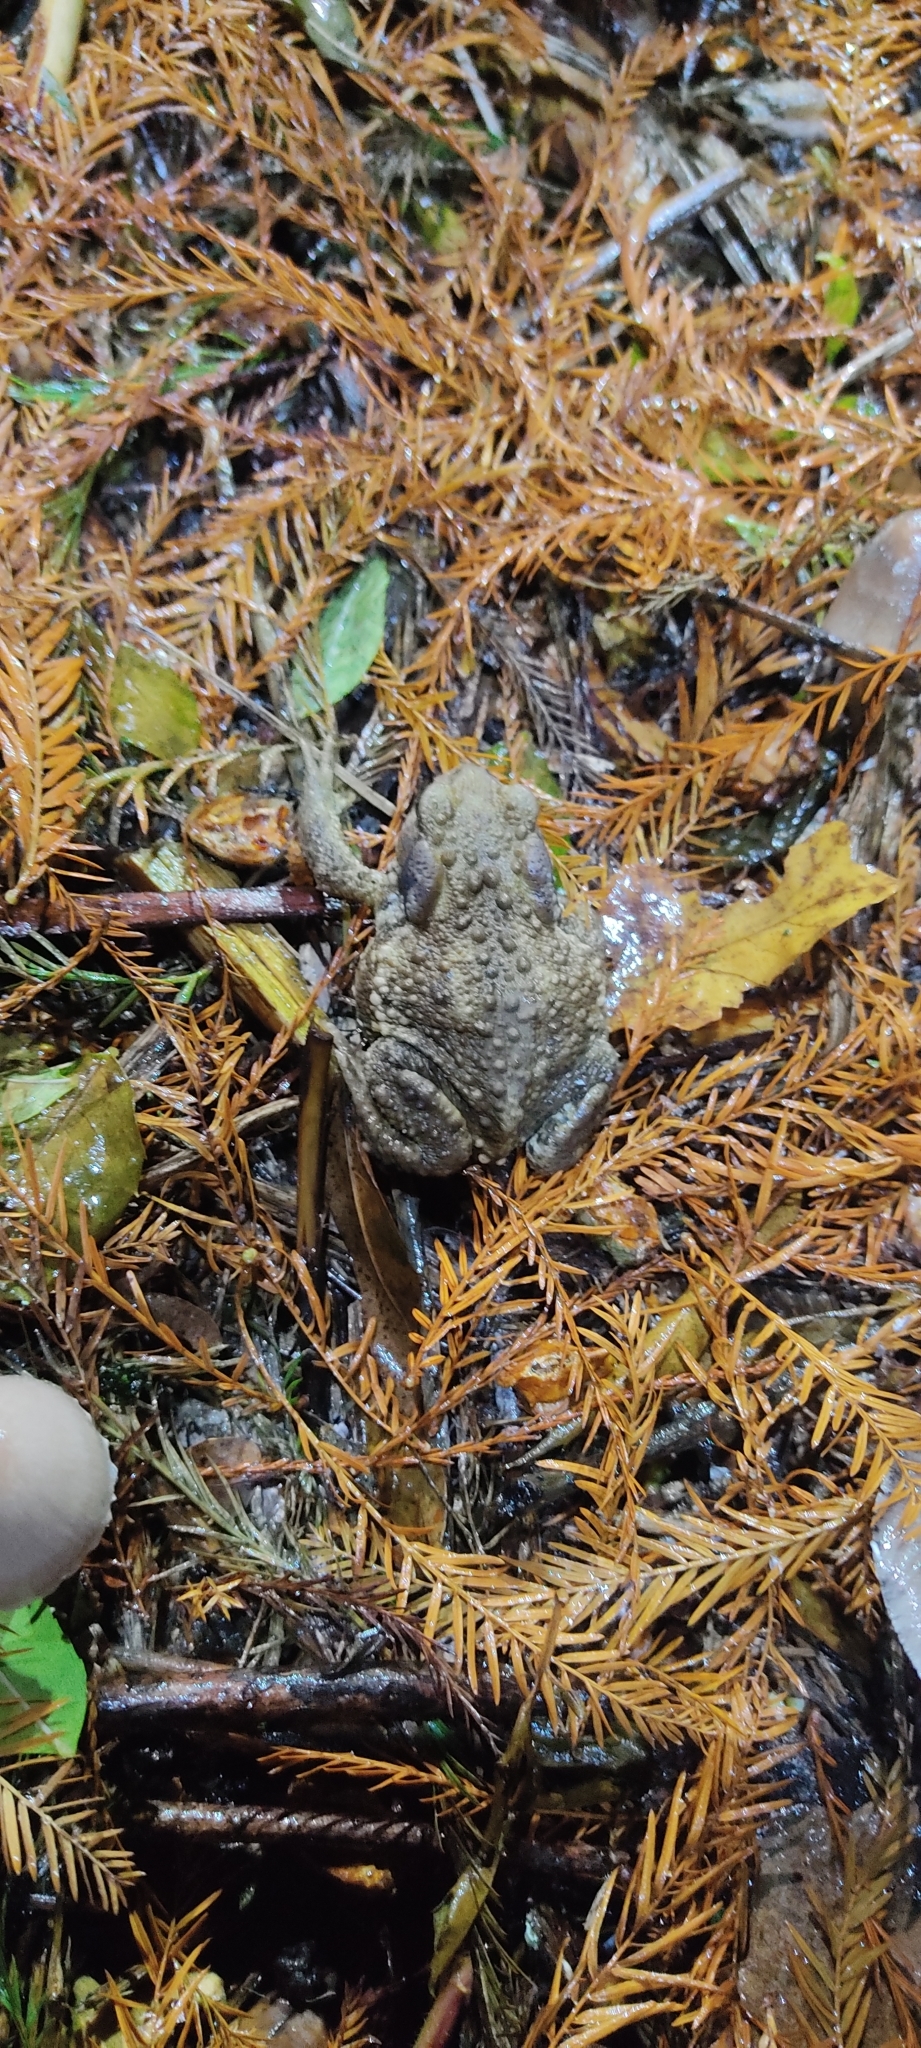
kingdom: Animalia
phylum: Chordata
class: Amphibia
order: Anura
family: Bufonidae
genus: Bufo
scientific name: Bufo spinosus
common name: Western common toad
